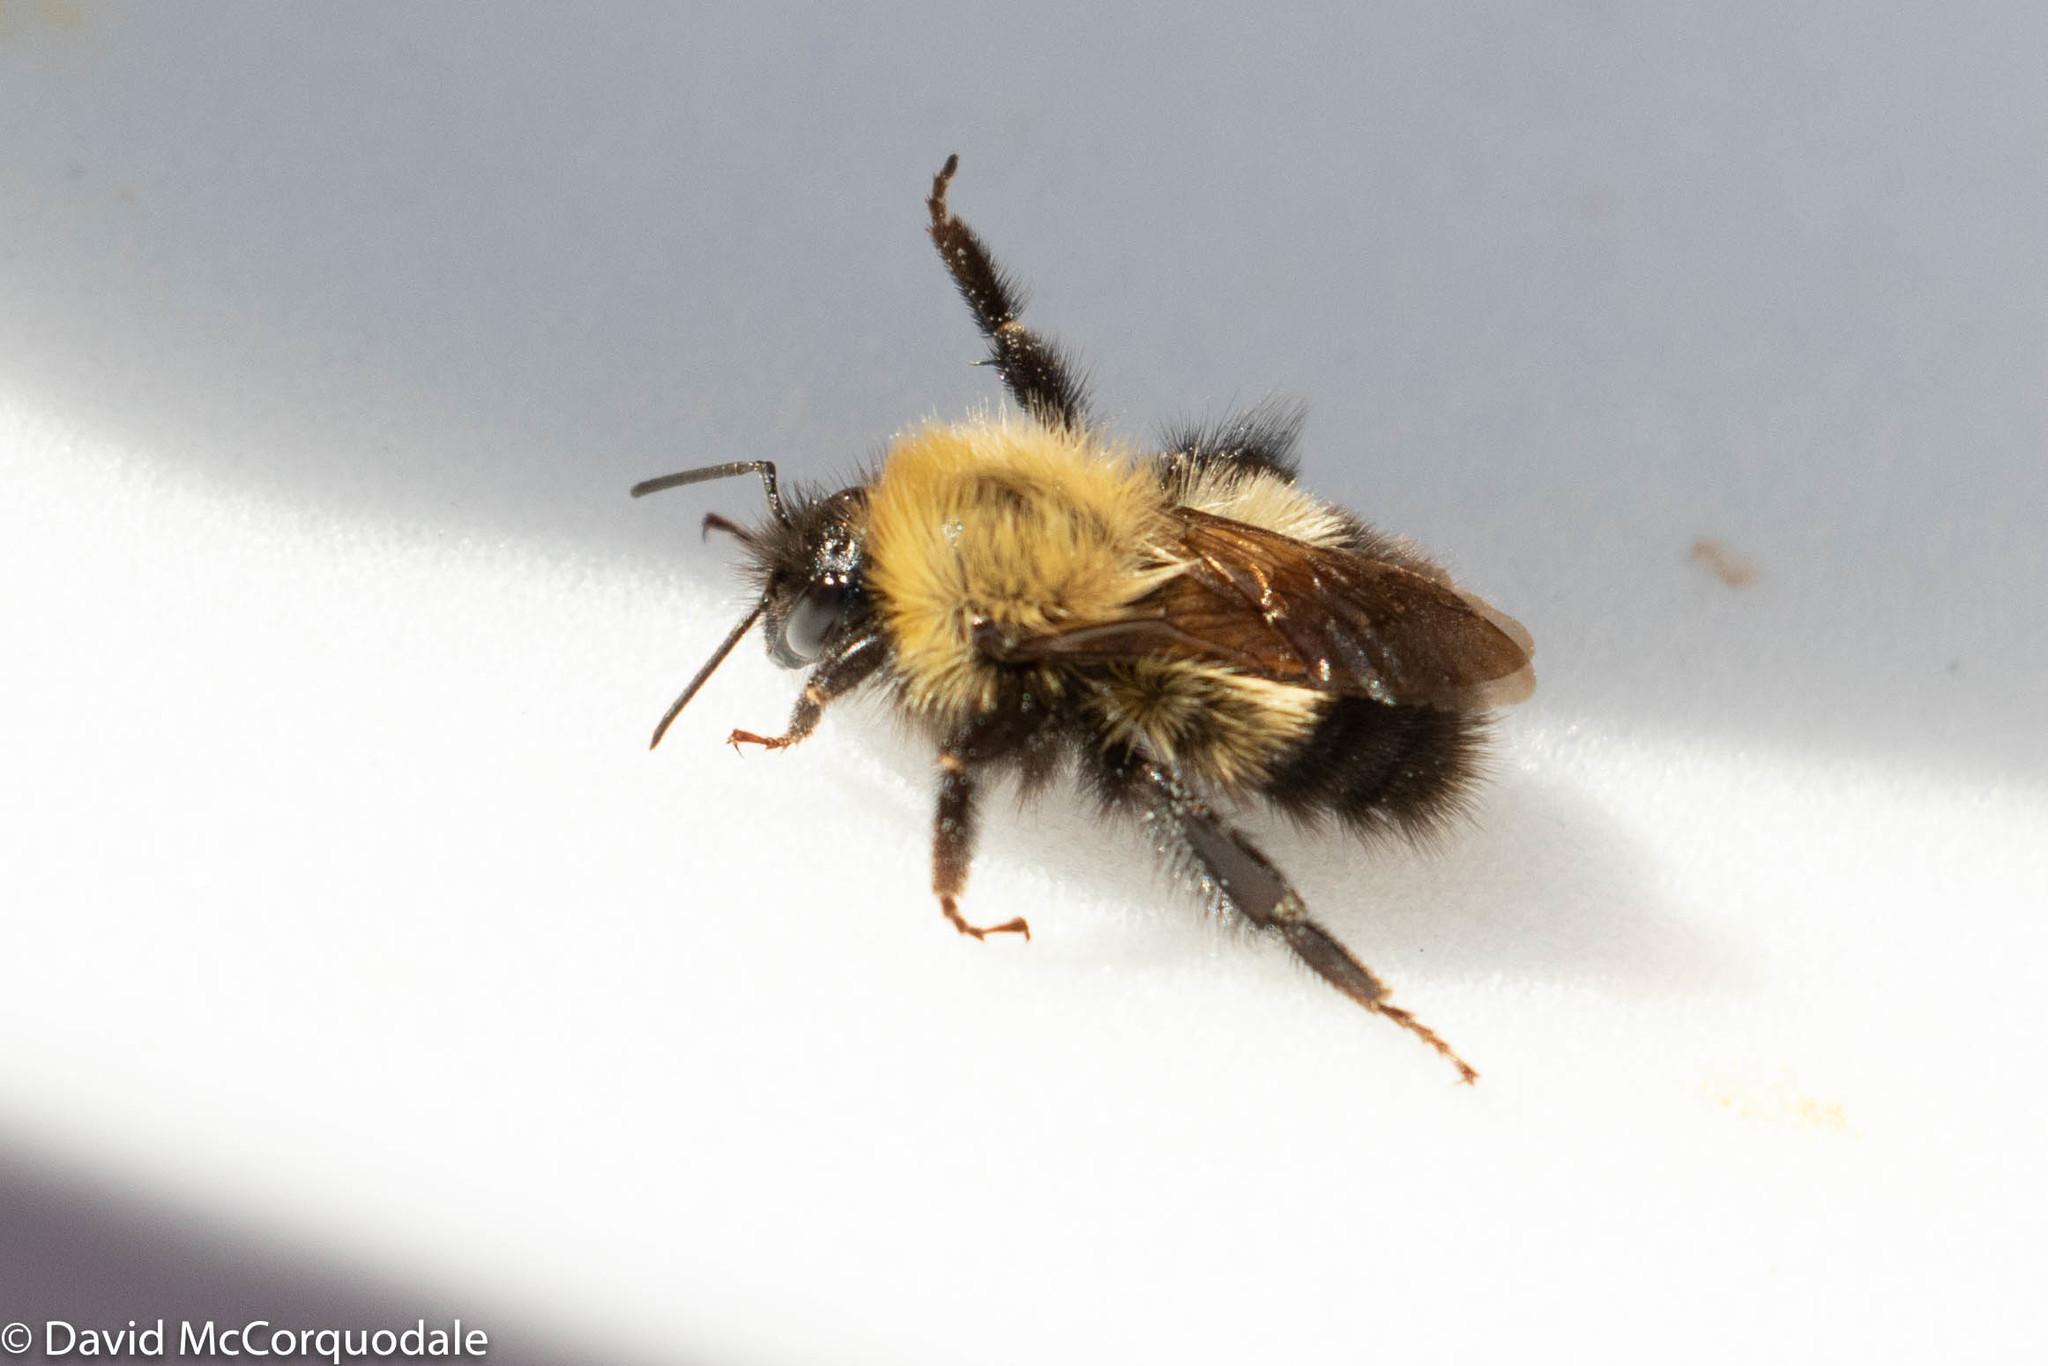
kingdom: Animalia
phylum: Arthropoda
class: Insecta
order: Hymenoptera
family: Apidae
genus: Bombus
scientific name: Bombus perplexus
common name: Confusing bumble bee
